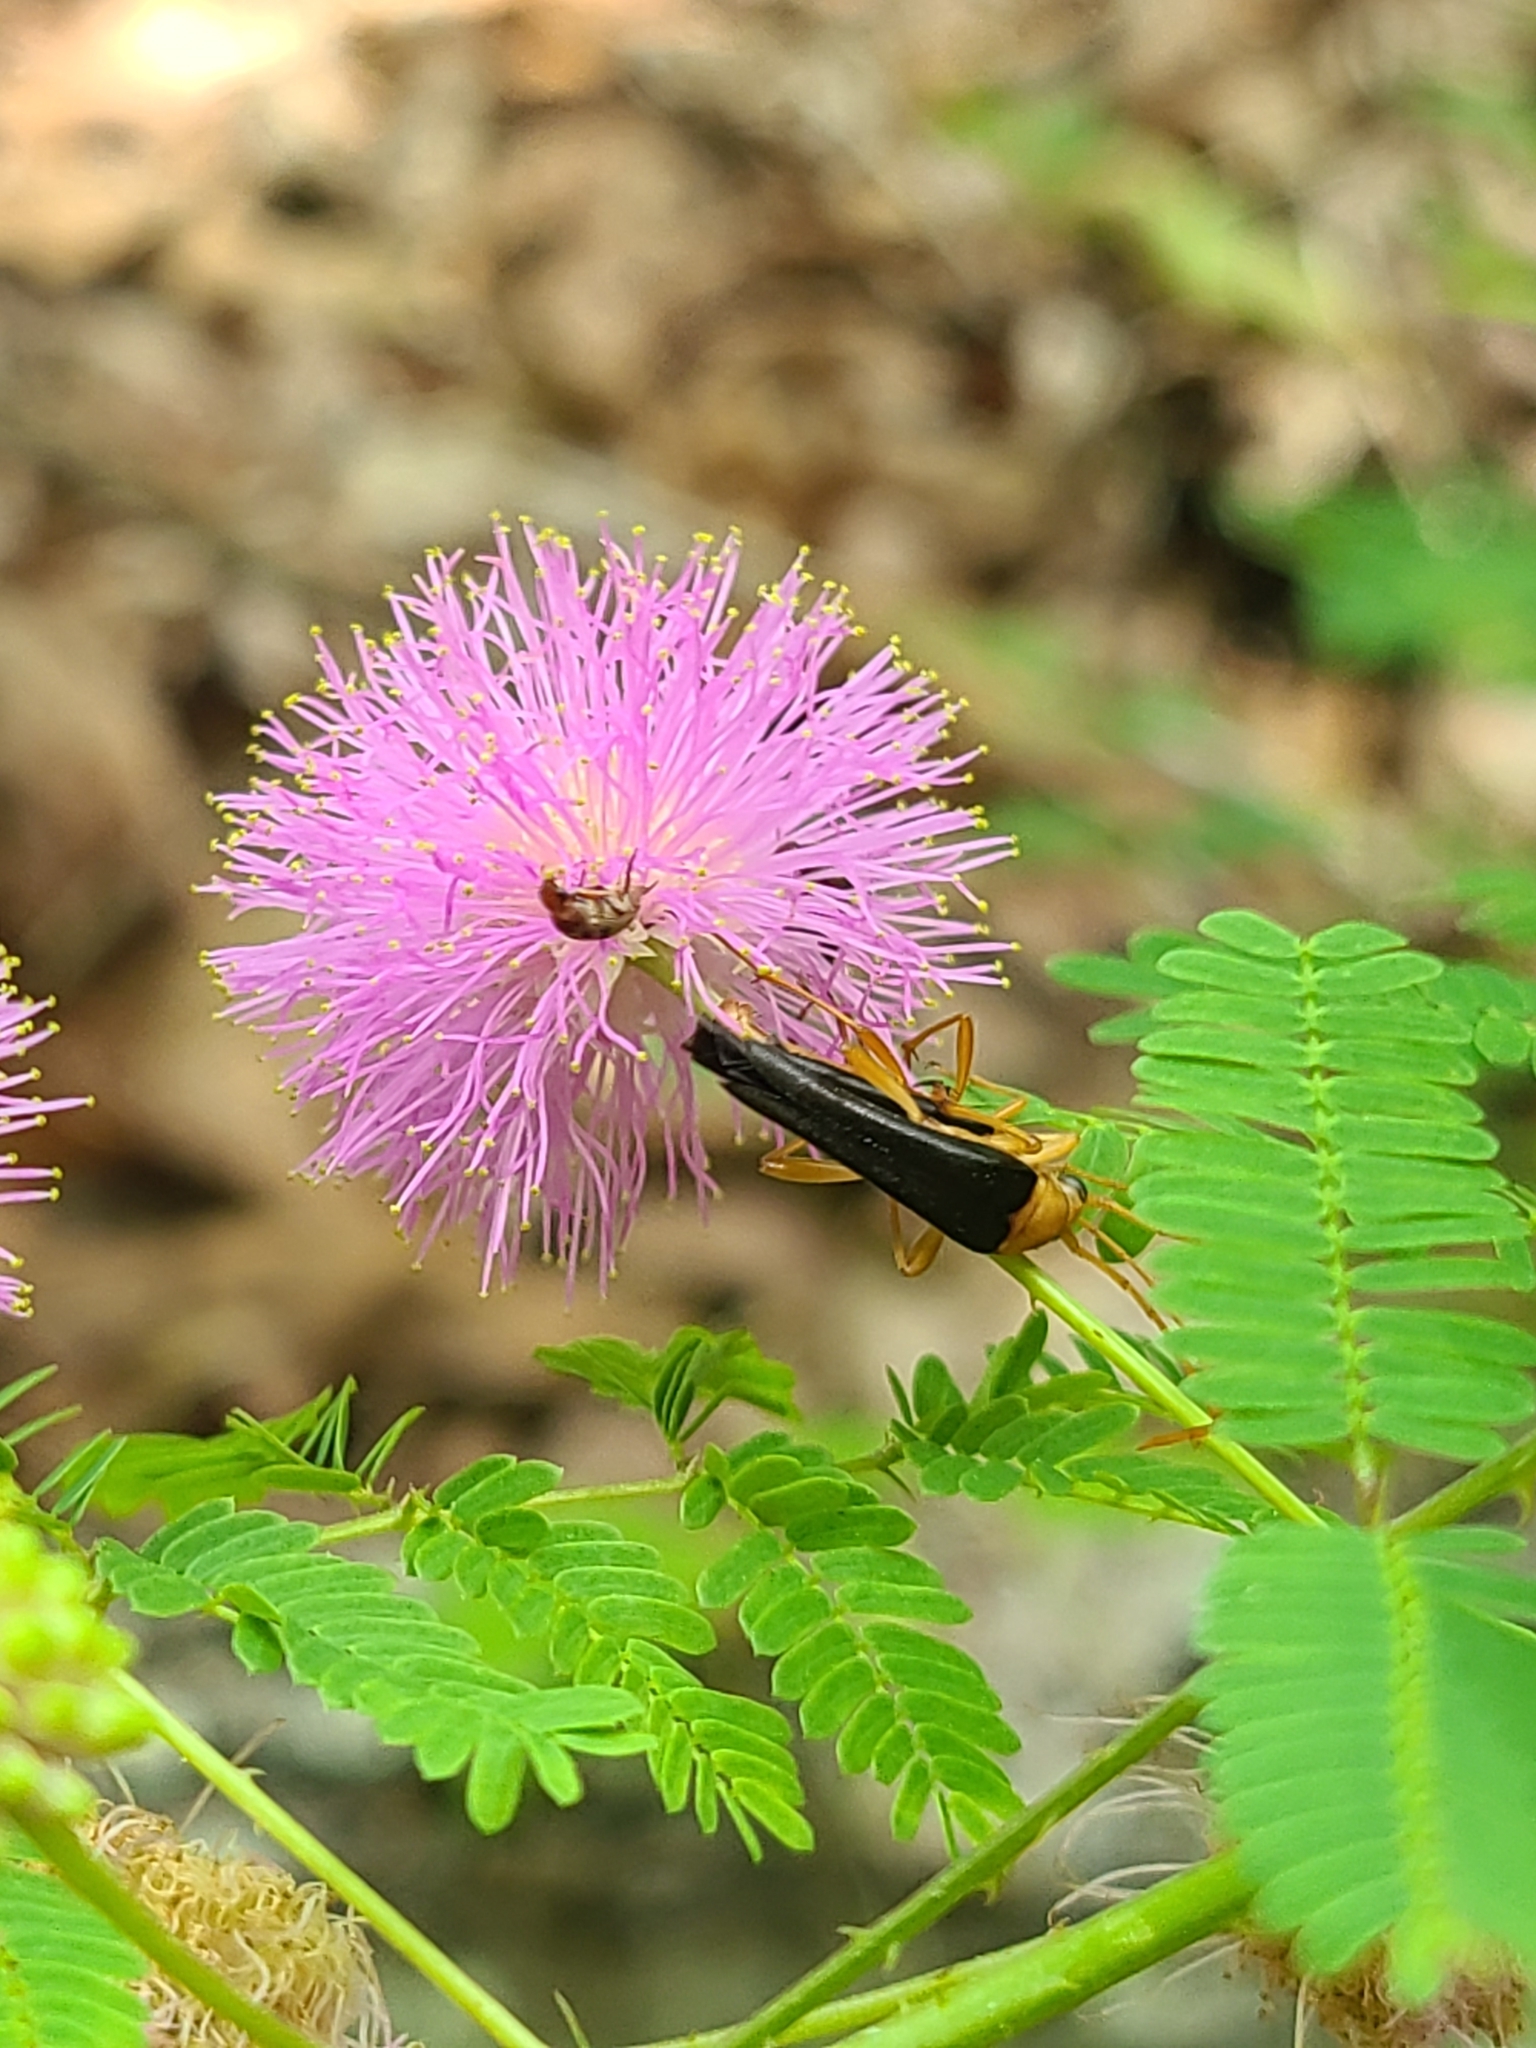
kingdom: Animalia
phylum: Arthropoda
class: Insecta
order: Coleoptera
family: Cerambycidae
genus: Strangalia
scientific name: Strangalia bicolor
